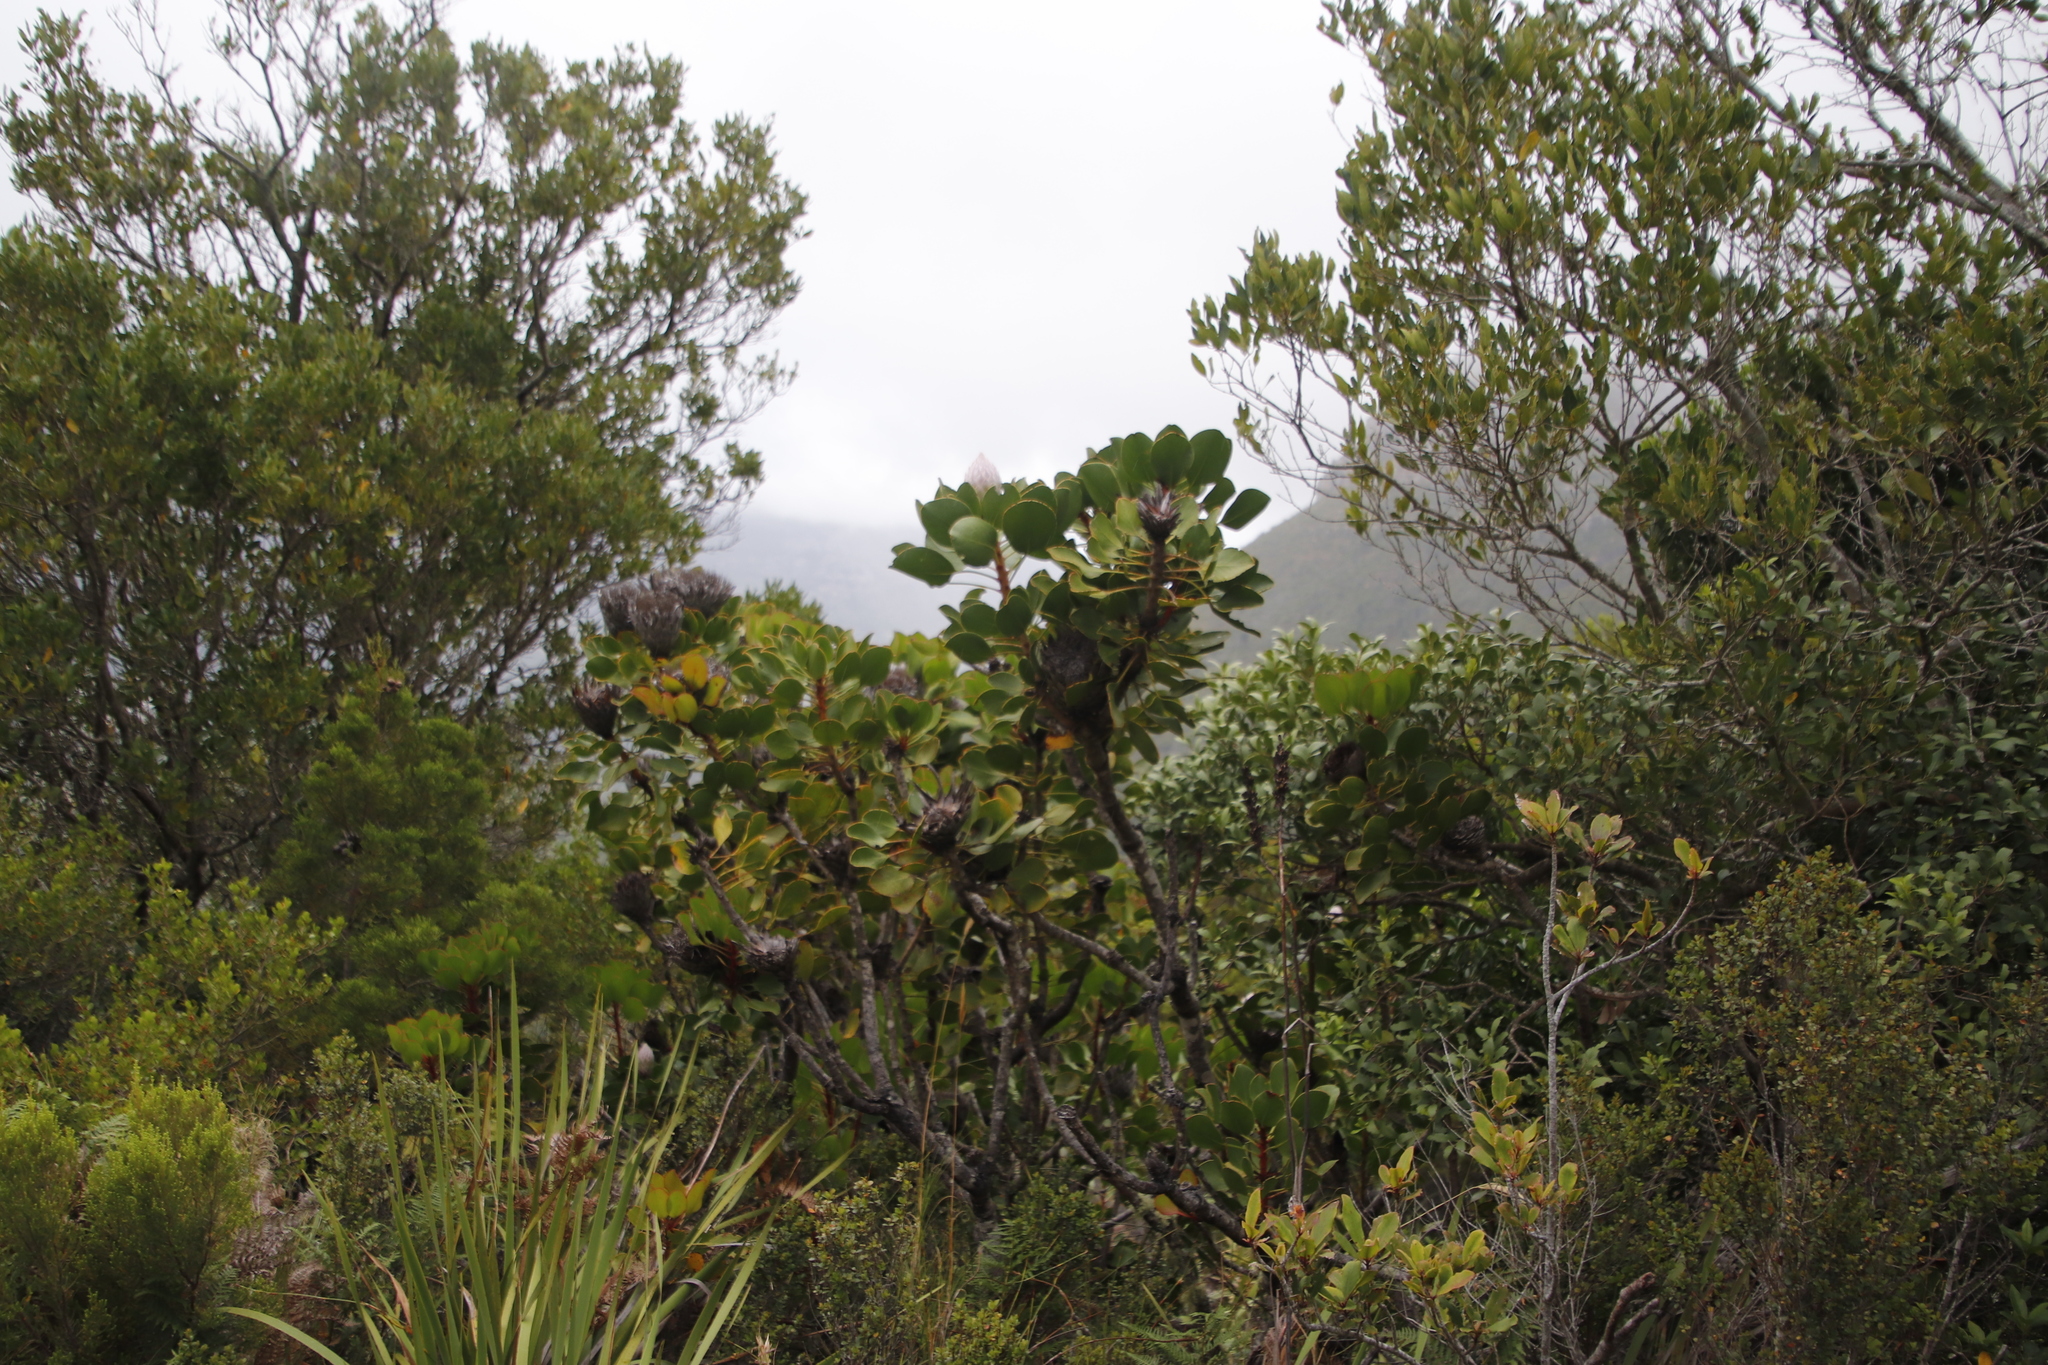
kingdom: Plantae
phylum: Tracheophyta
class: Magnoliopsida
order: Proteales
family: Proteaceae
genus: Protea
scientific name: Protea cynaroides
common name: King protea
